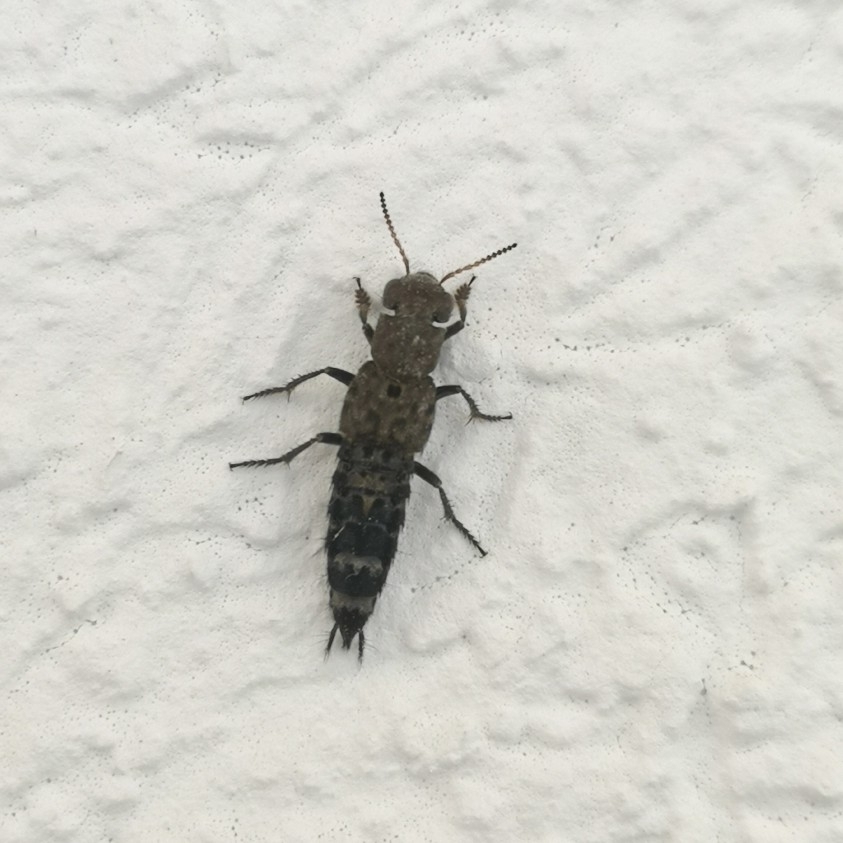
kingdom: Animalia
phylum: Arthropoda
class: Insecta
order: Coleoptera
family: Staphylinidae
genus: Ontholestes
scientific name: Ontholestes murinus
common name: Staph beetle
